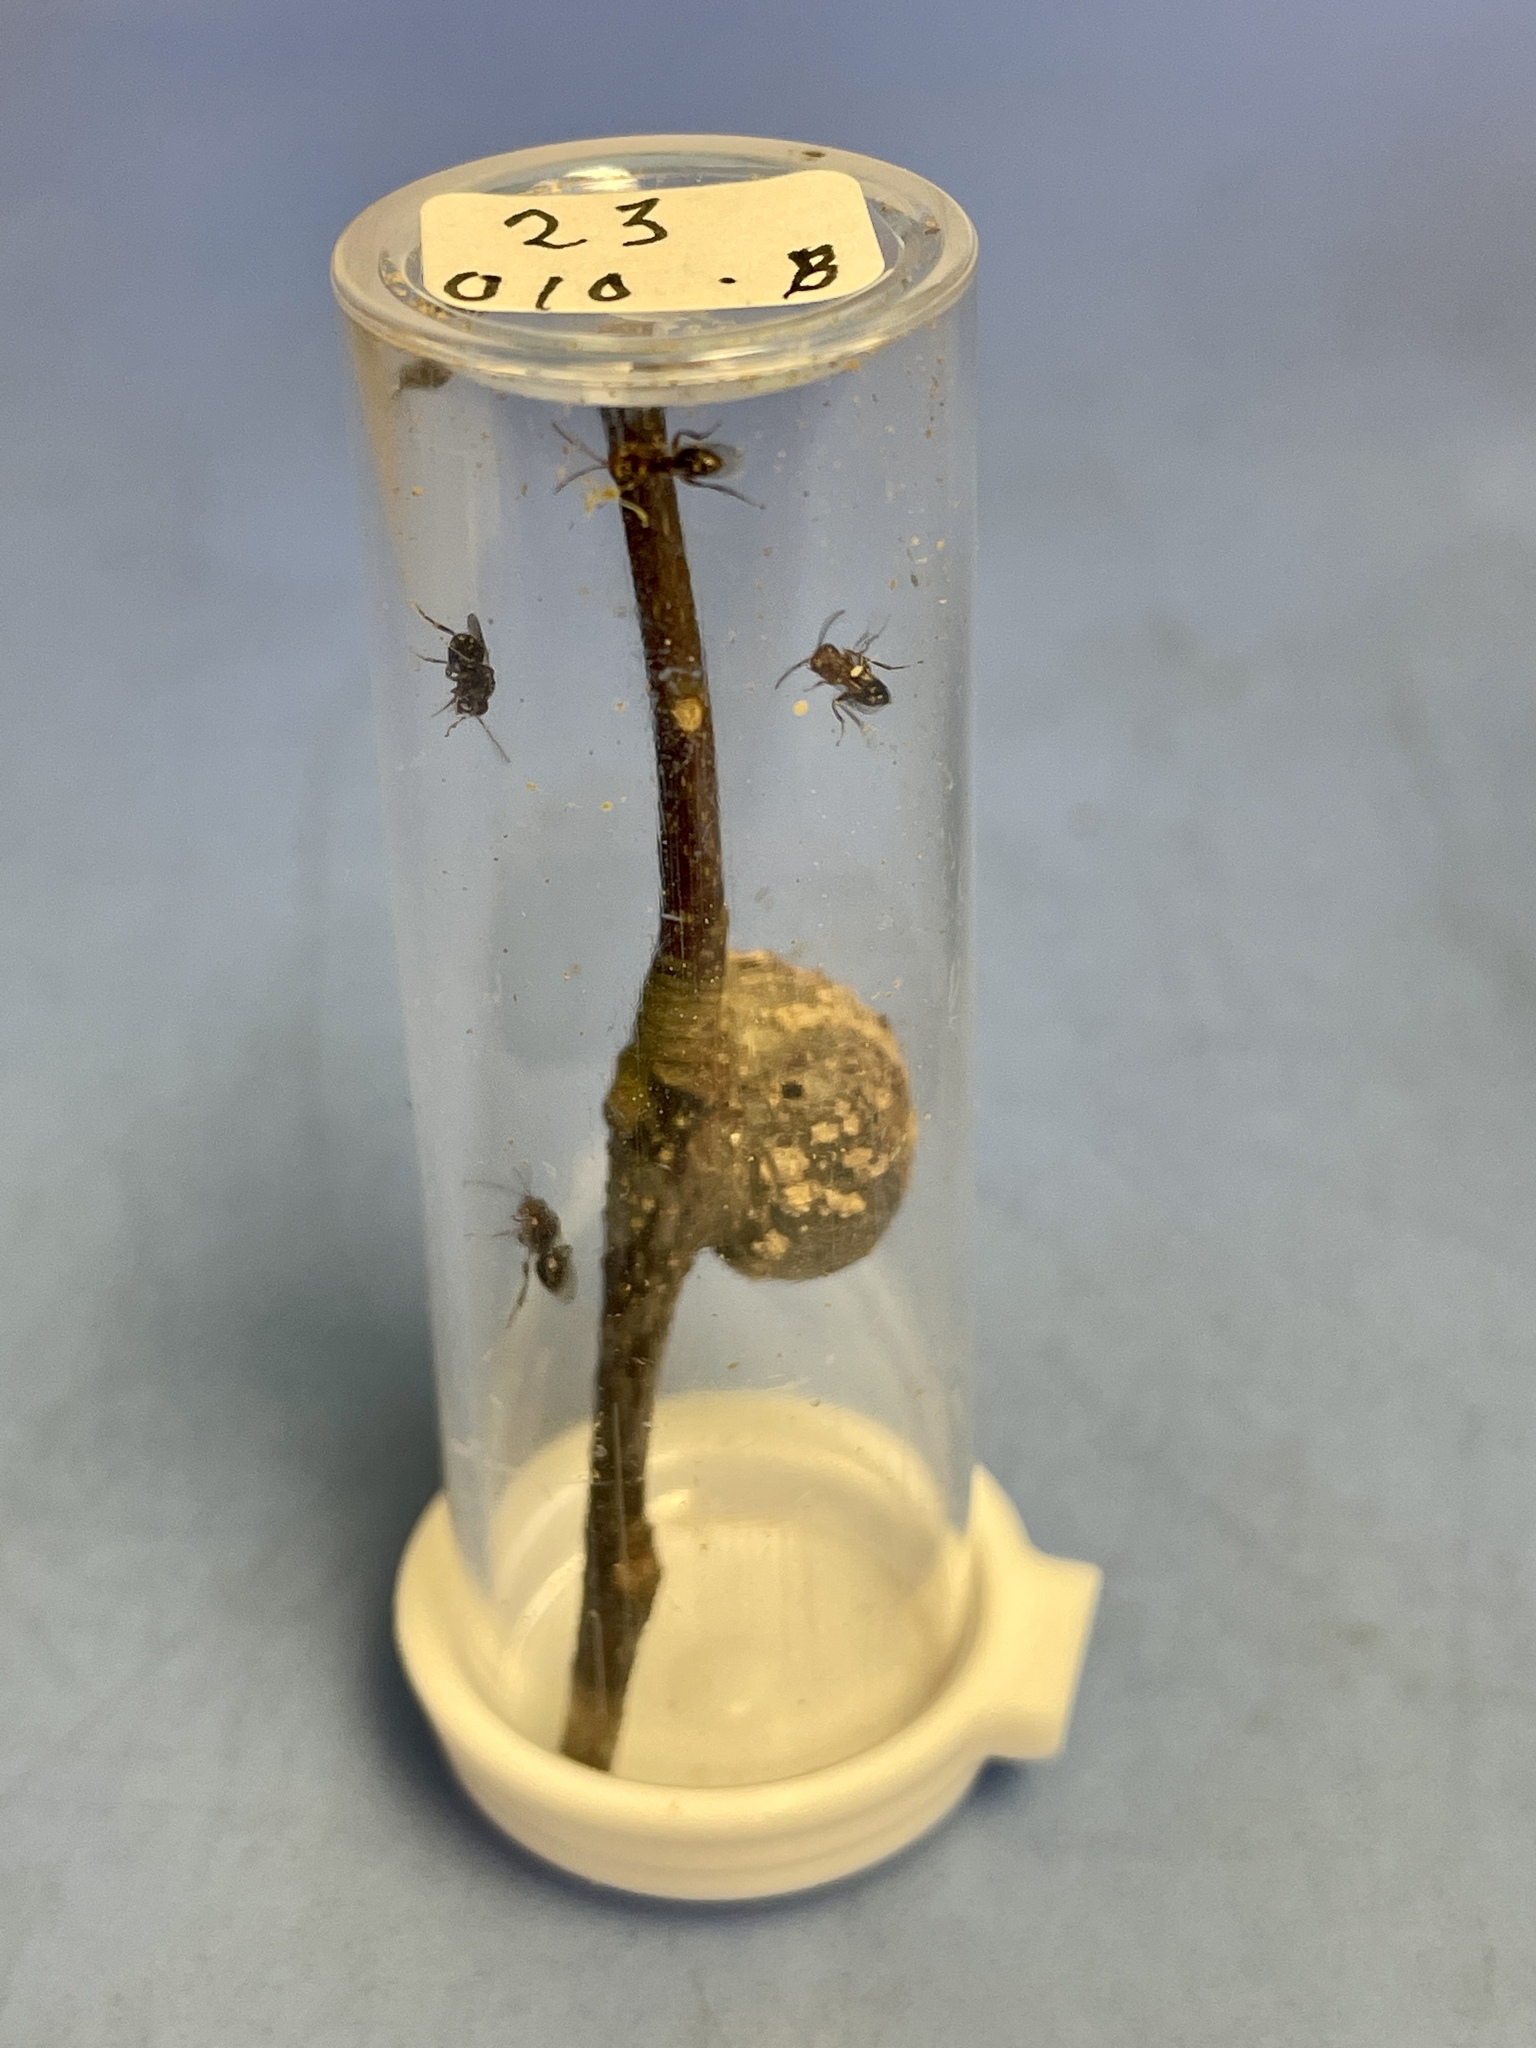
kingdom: Animalia
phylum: Arthropoda
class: Insecta
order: Hymenoptera
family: Cynipidae
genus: Synergus
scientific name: Synergus lignicola
